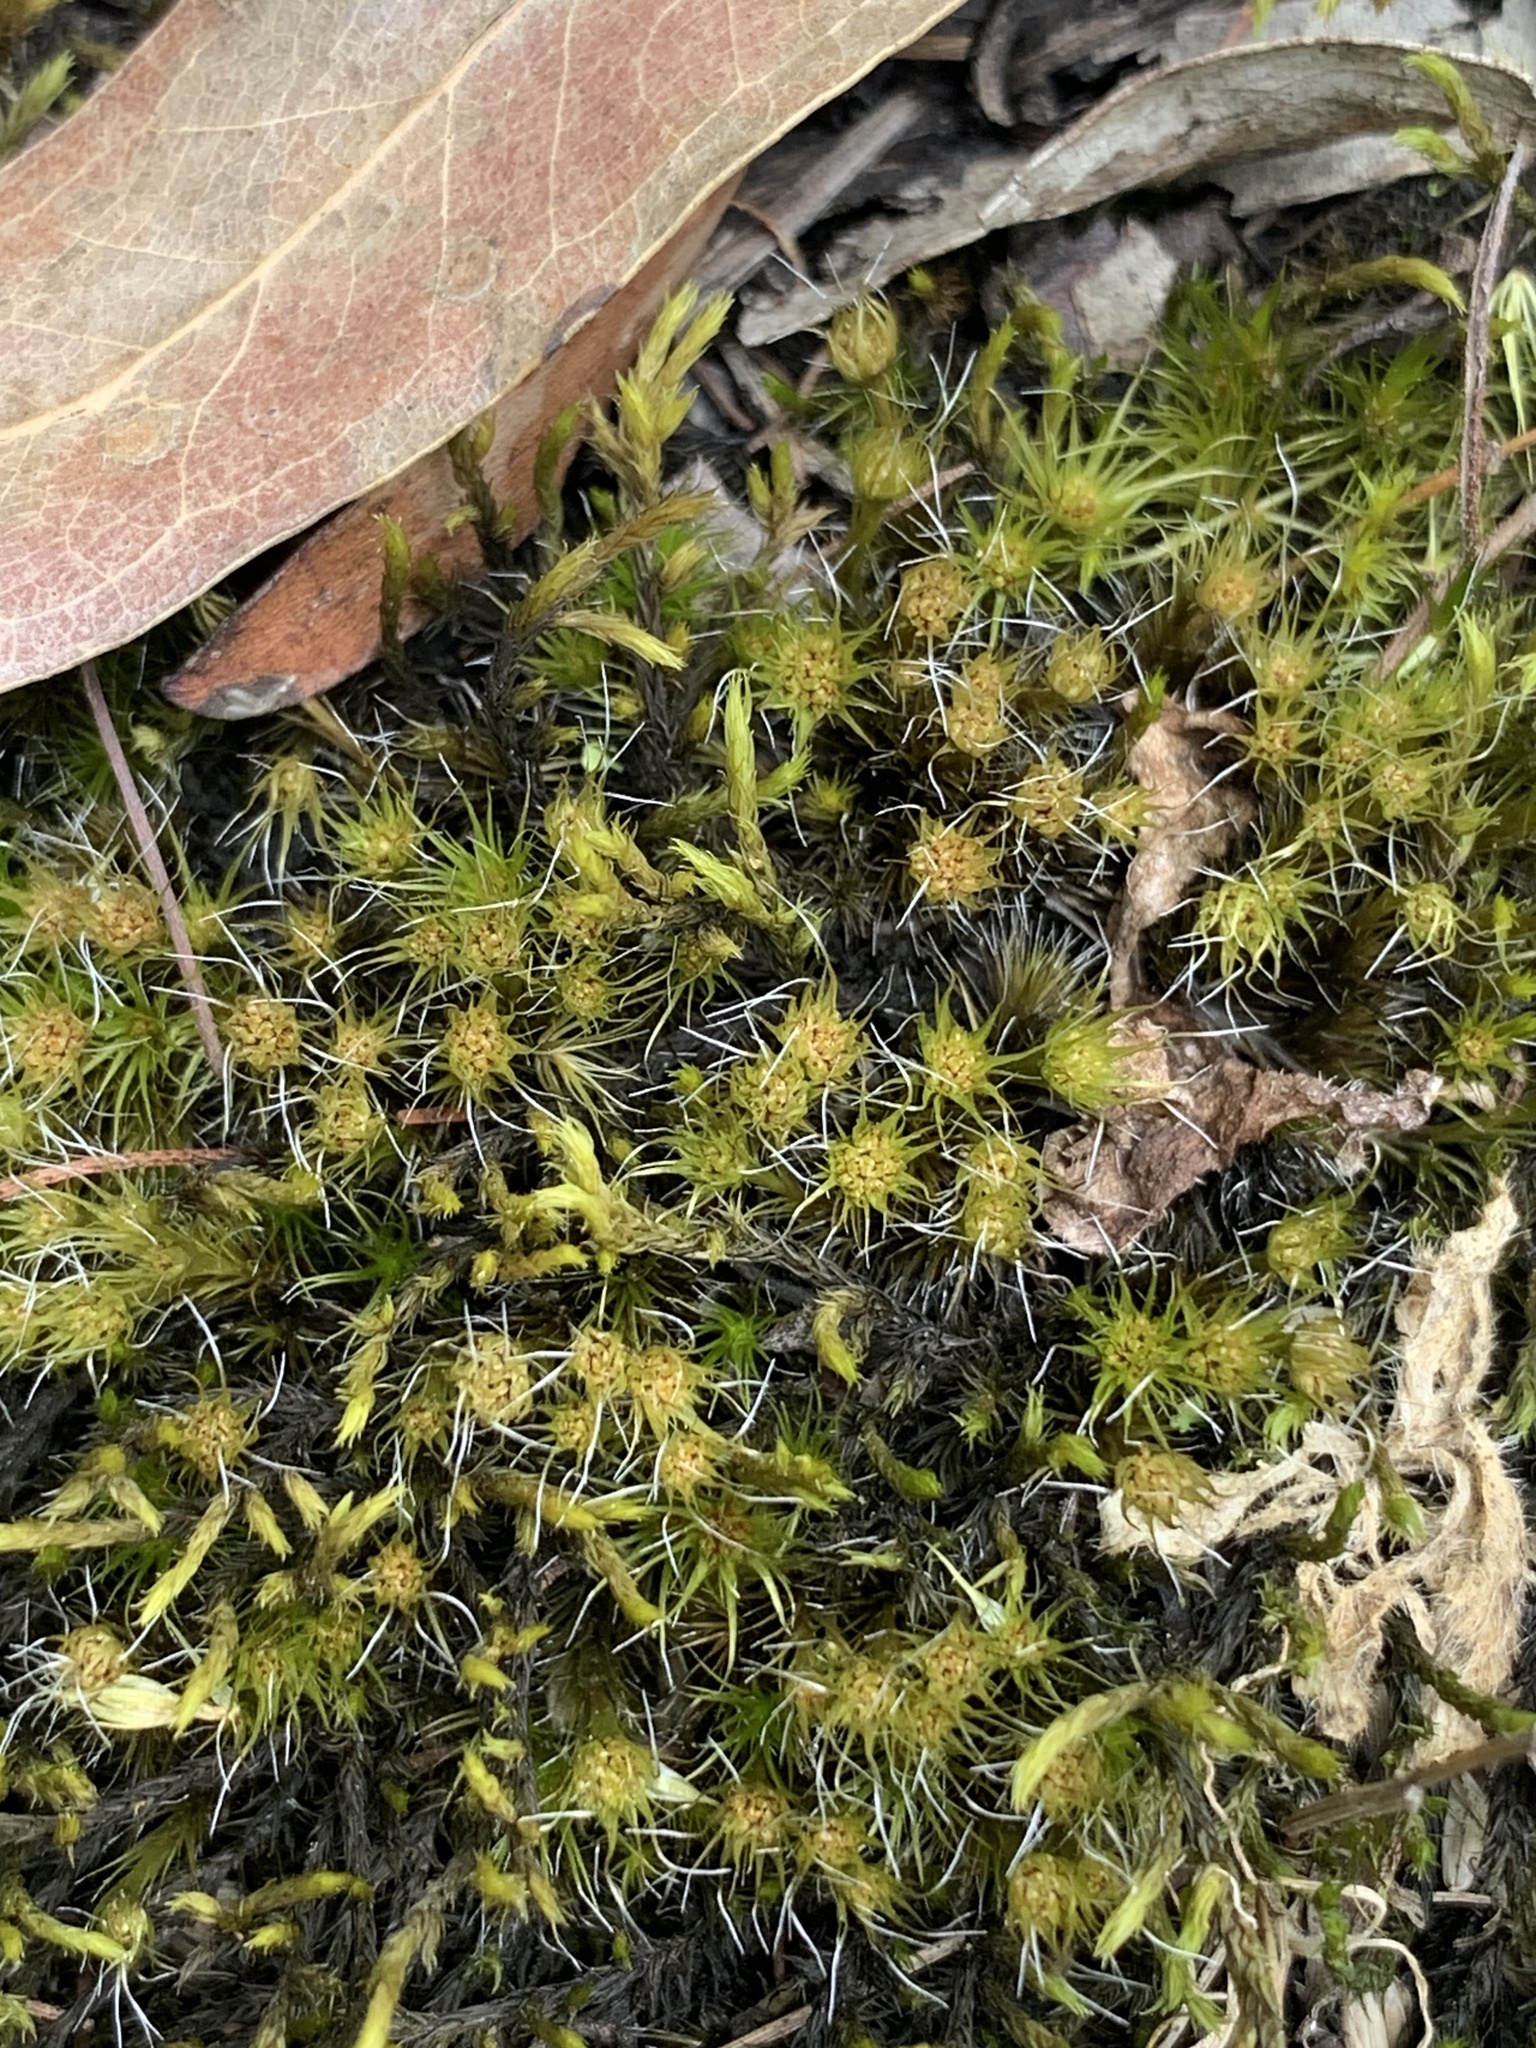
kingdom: Plantae
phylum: Bryophyta
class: Bryopsida
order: Dicranales
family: Leucobryaceae
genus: Campylopus
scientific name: Campylopus introflexus
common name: Heath star moss
